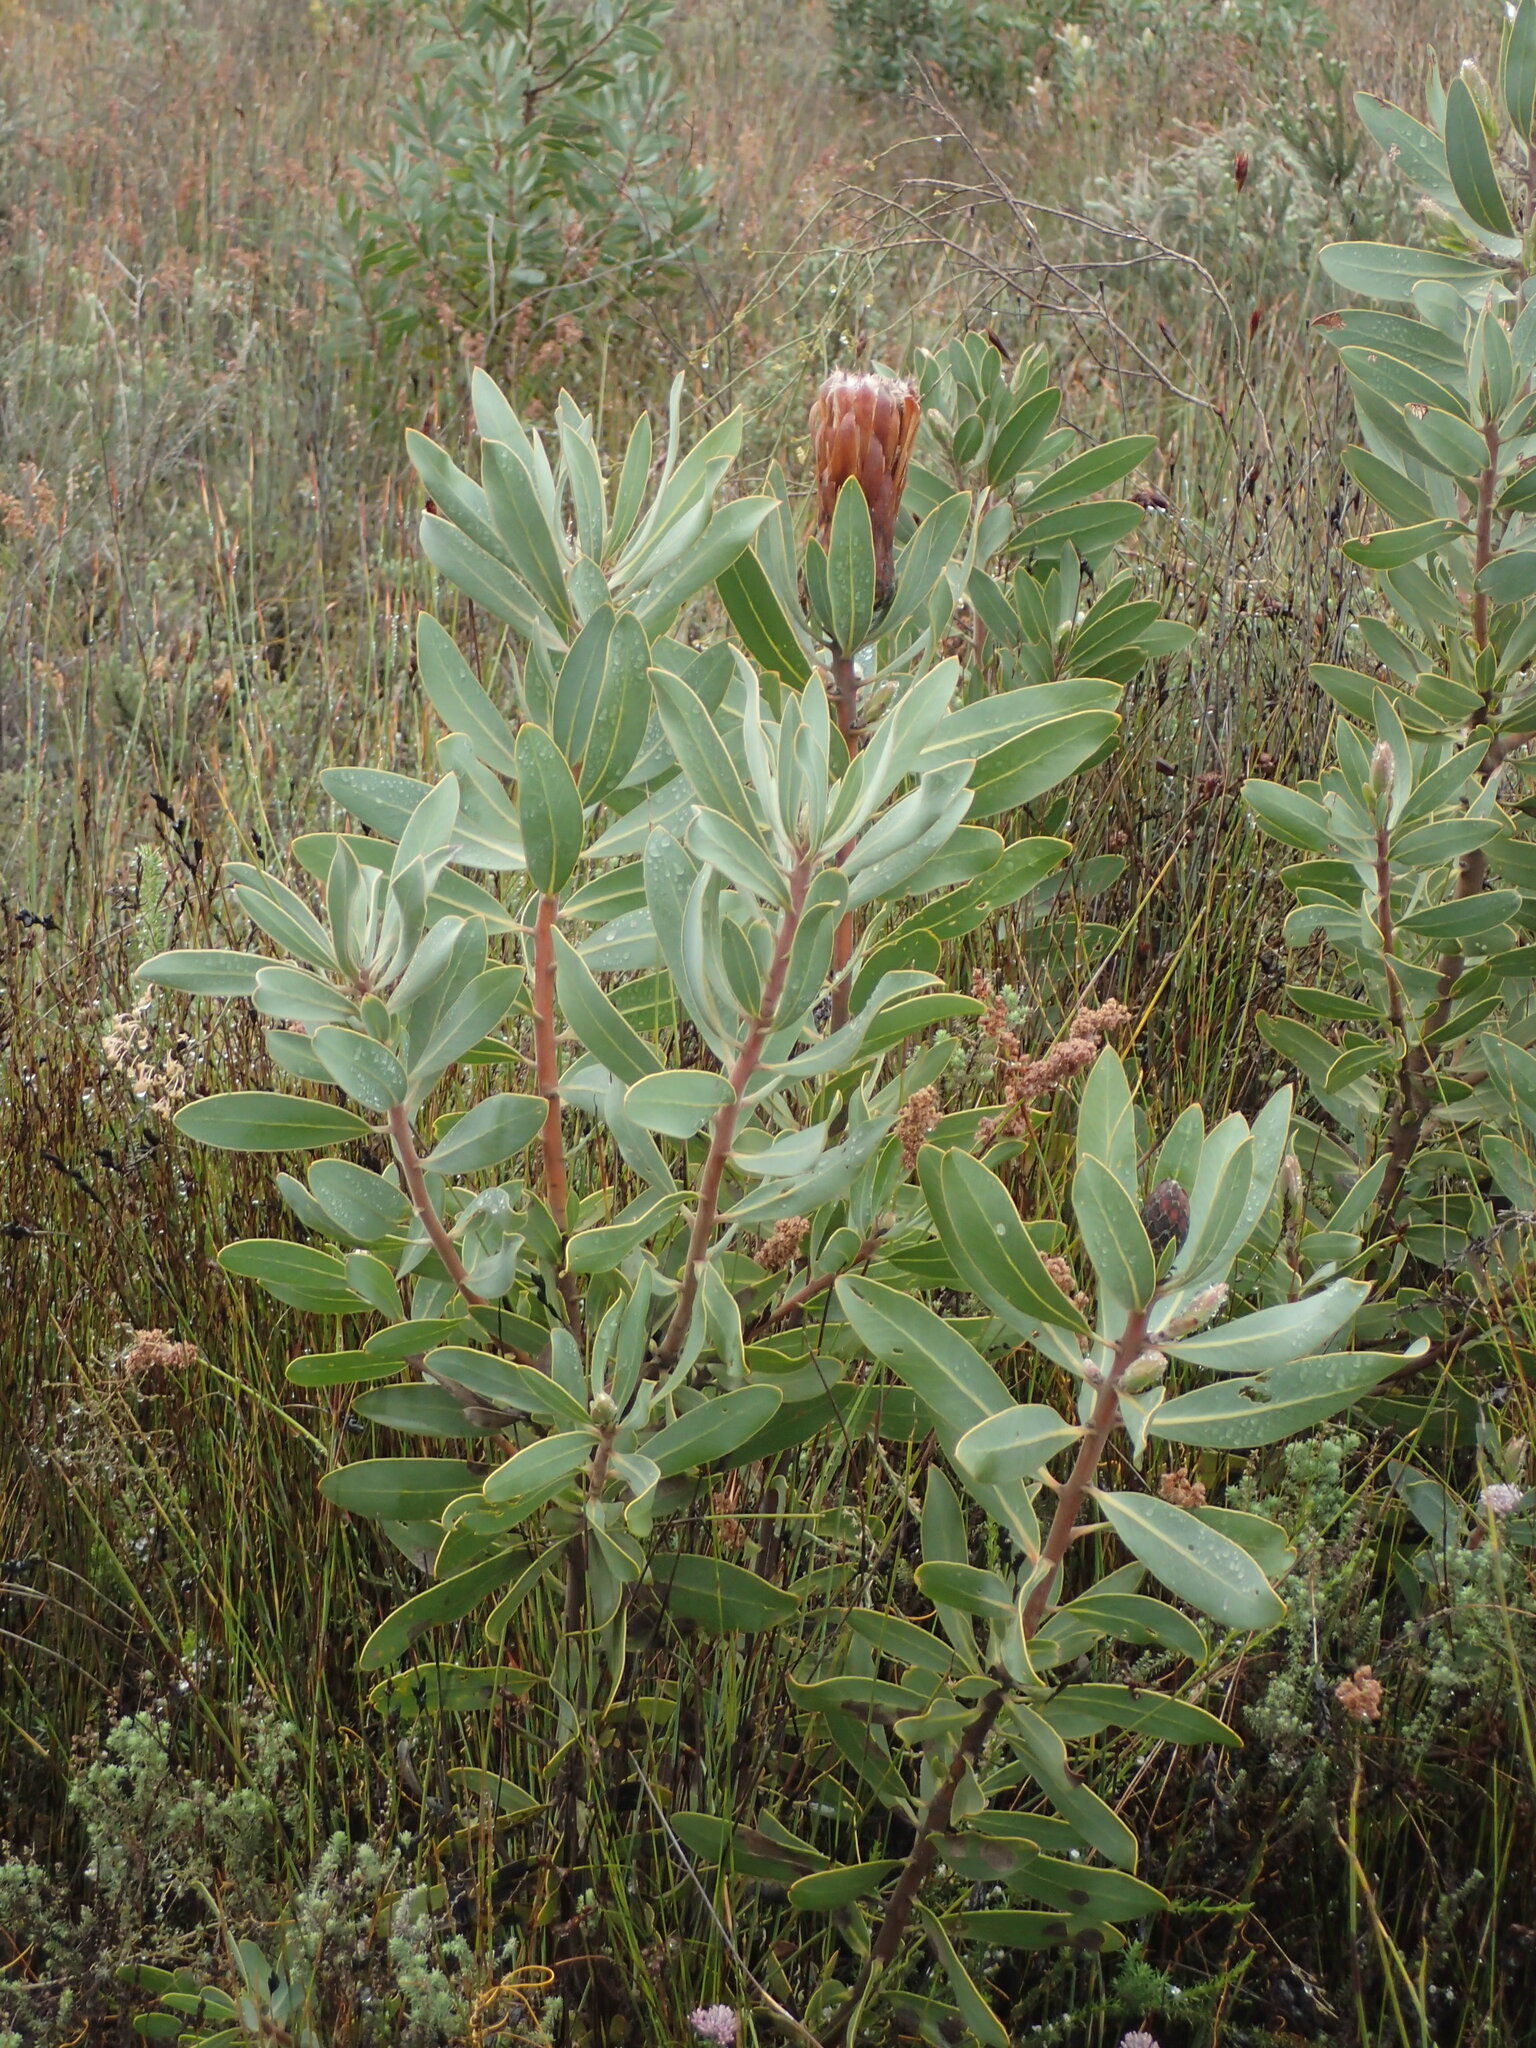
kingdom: Plantae
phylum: Tracheophyta
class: Magnoliopsida
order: Proteales
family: Proteaceae
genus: Protea
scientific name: Protea nitida
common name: Tree protea
